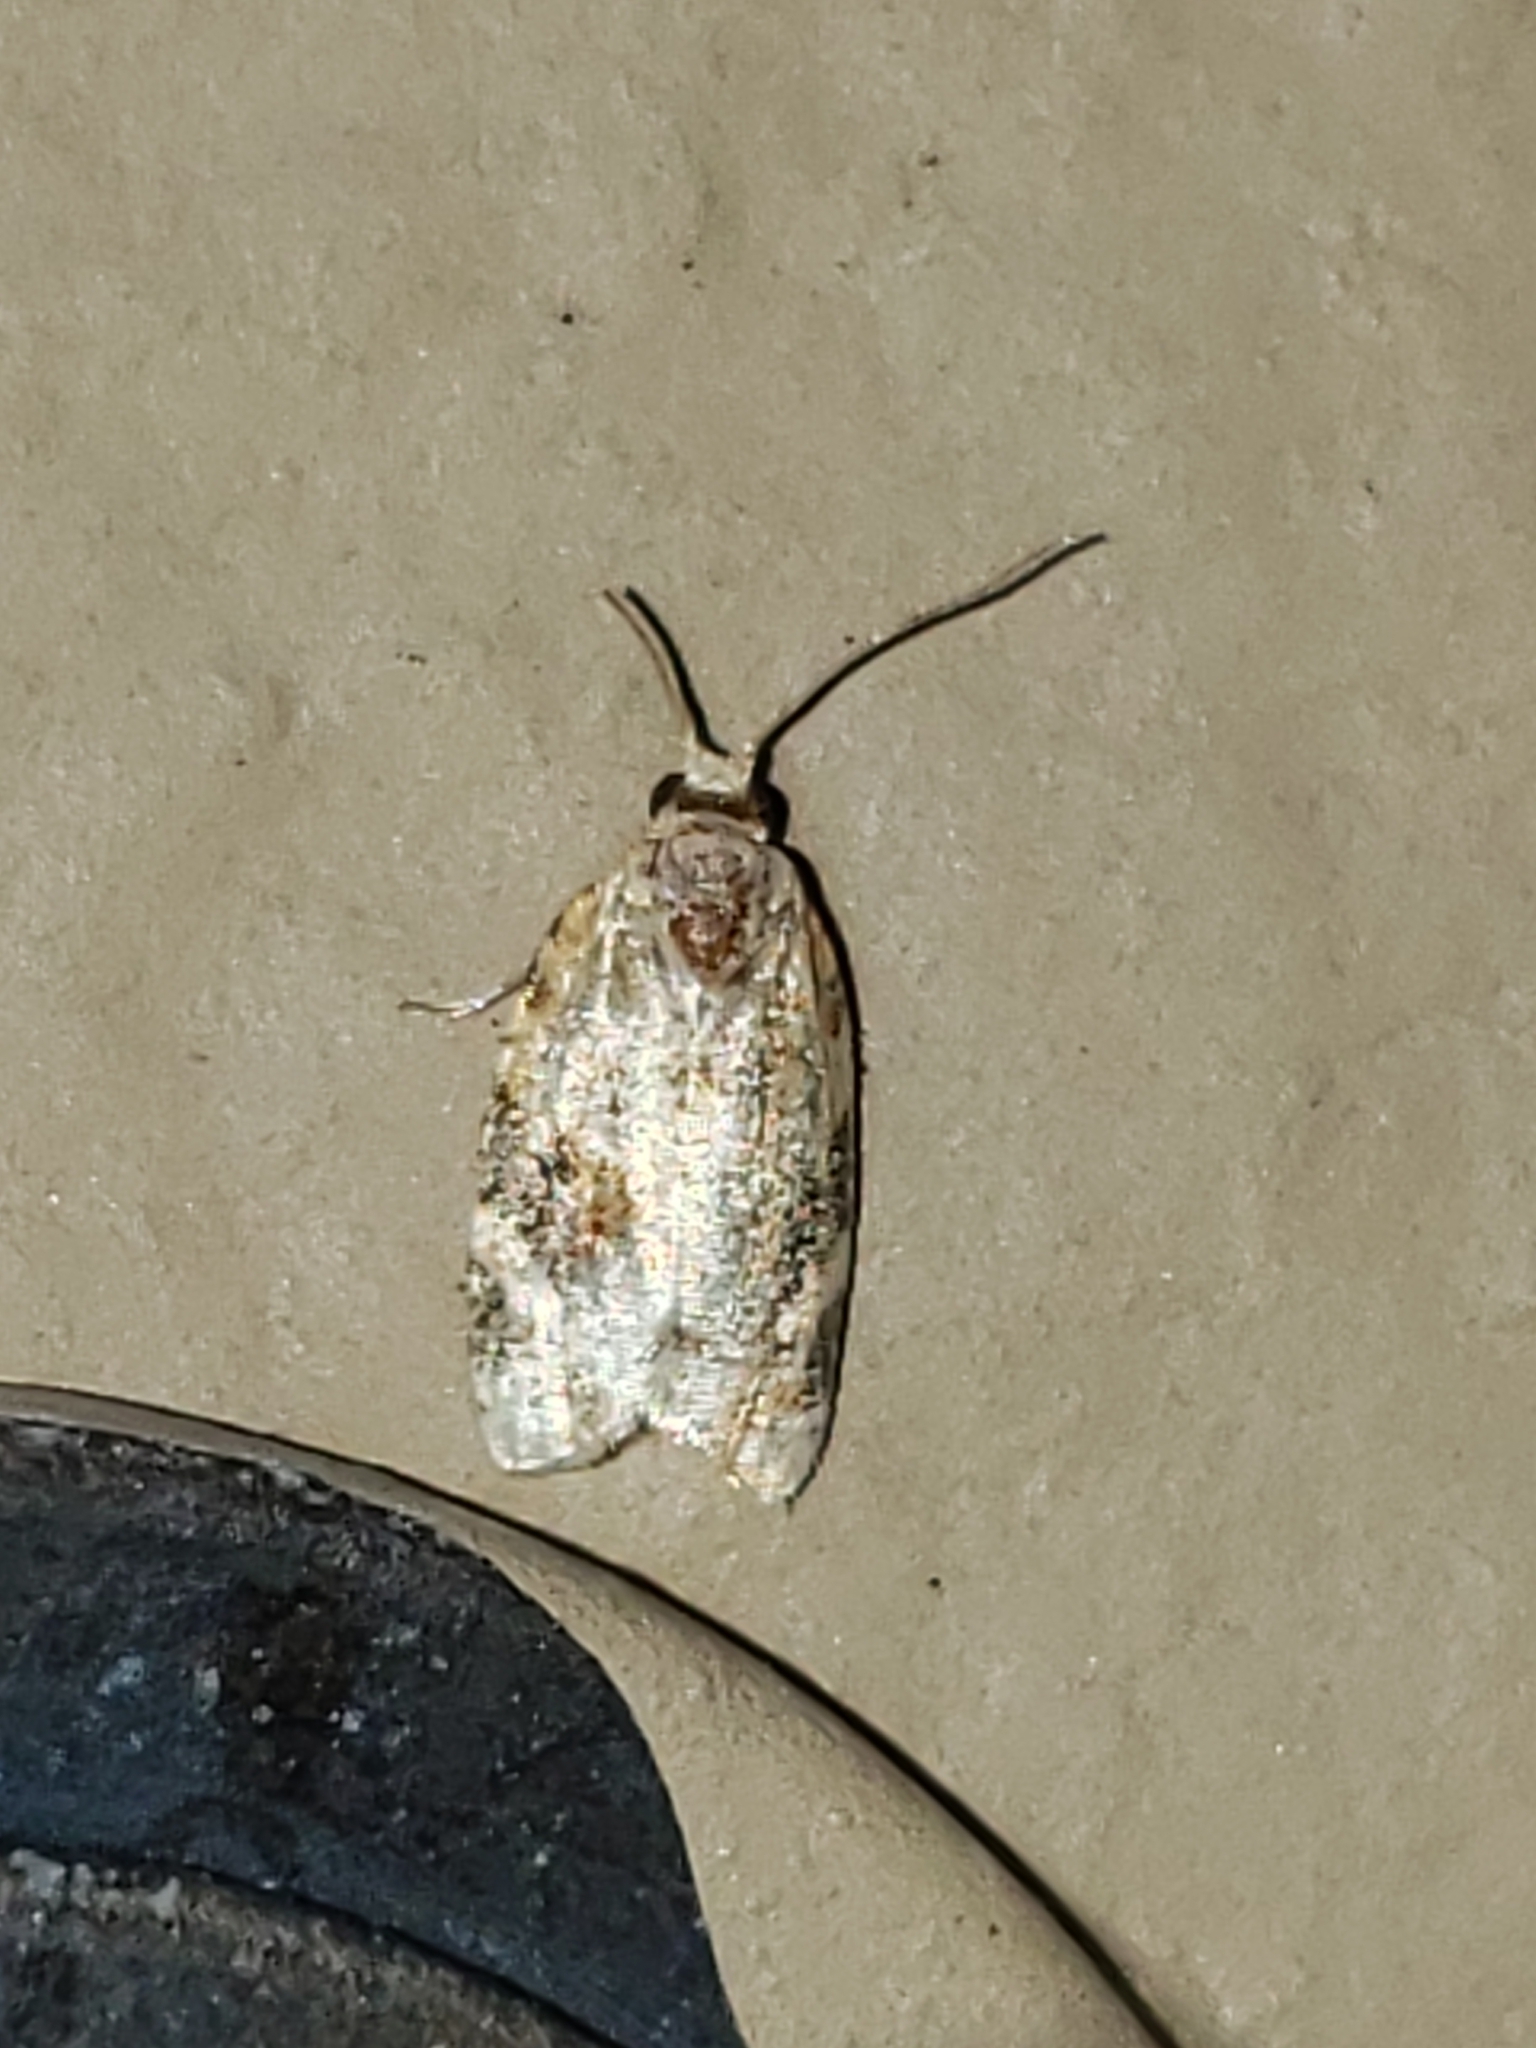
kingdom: Animalia
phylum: Arthropoda
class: Insecta
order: Lepidoptera
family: Tortricidae
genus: Argyrotaenia
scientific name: Argyrotaenia velutinana
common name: Red-banded leafroller moth
